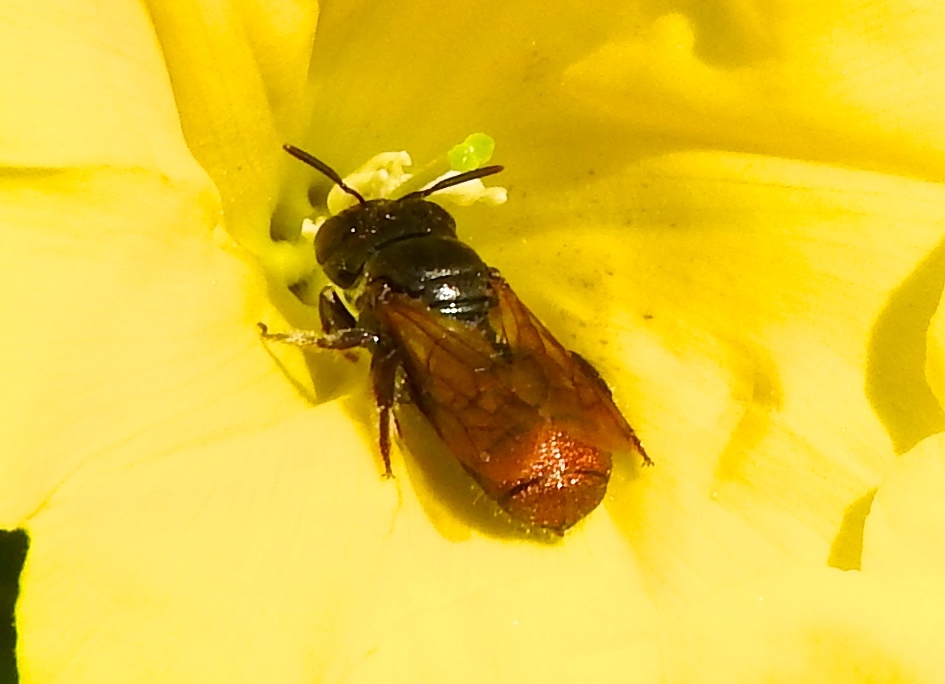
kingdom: Animalia
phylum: Arthropoda
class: Insecta
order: Hymenoptera
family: Apidae
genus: Ceratina
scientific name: Ceratina eximia
